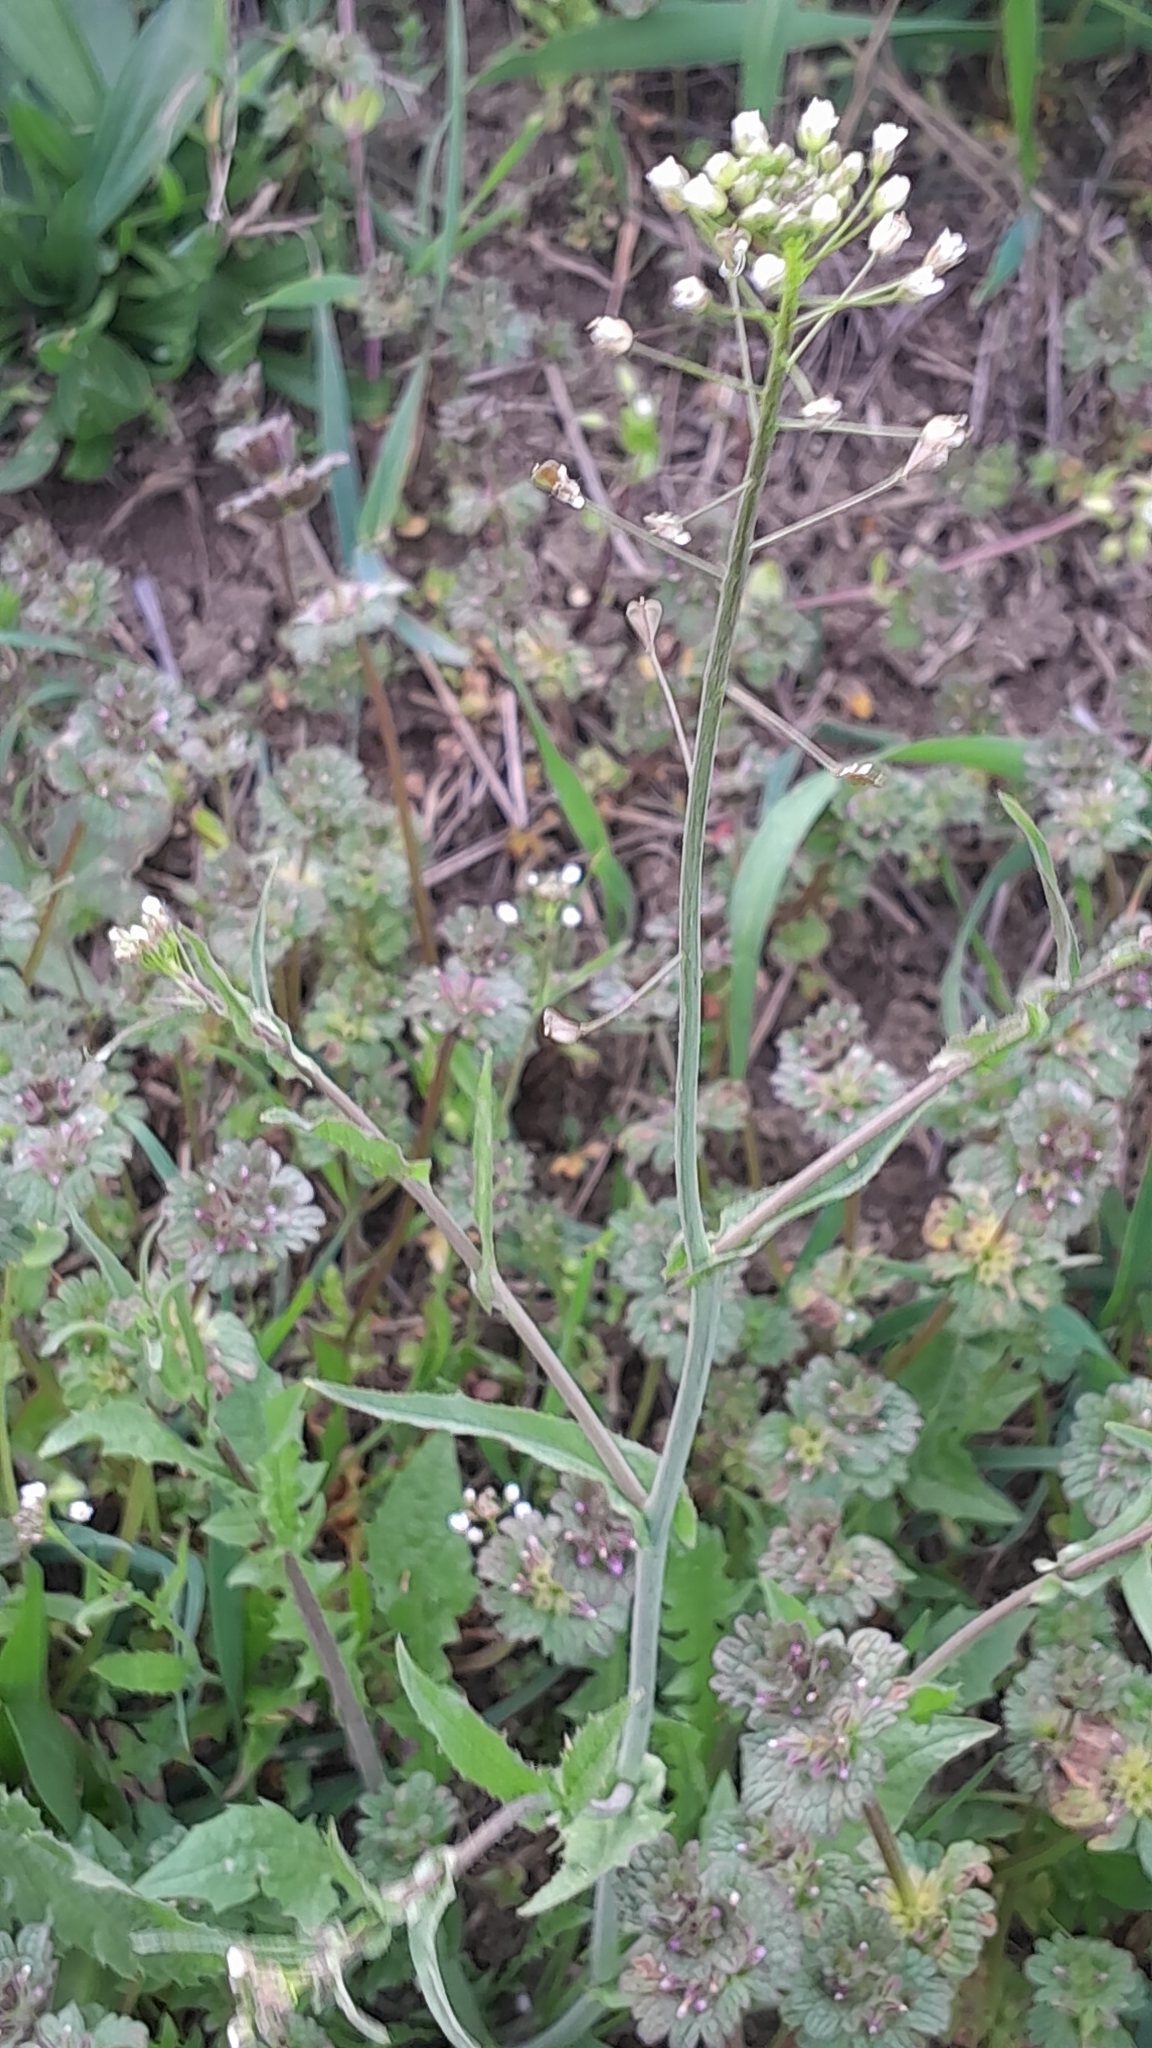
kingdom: Plantae
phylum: Tracheophyta
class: Magnoliopsida
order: Brassicales
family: Brassicaceae
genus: Capsella
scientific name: Capsella bursa-pastoris
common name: Shepherd's purse
